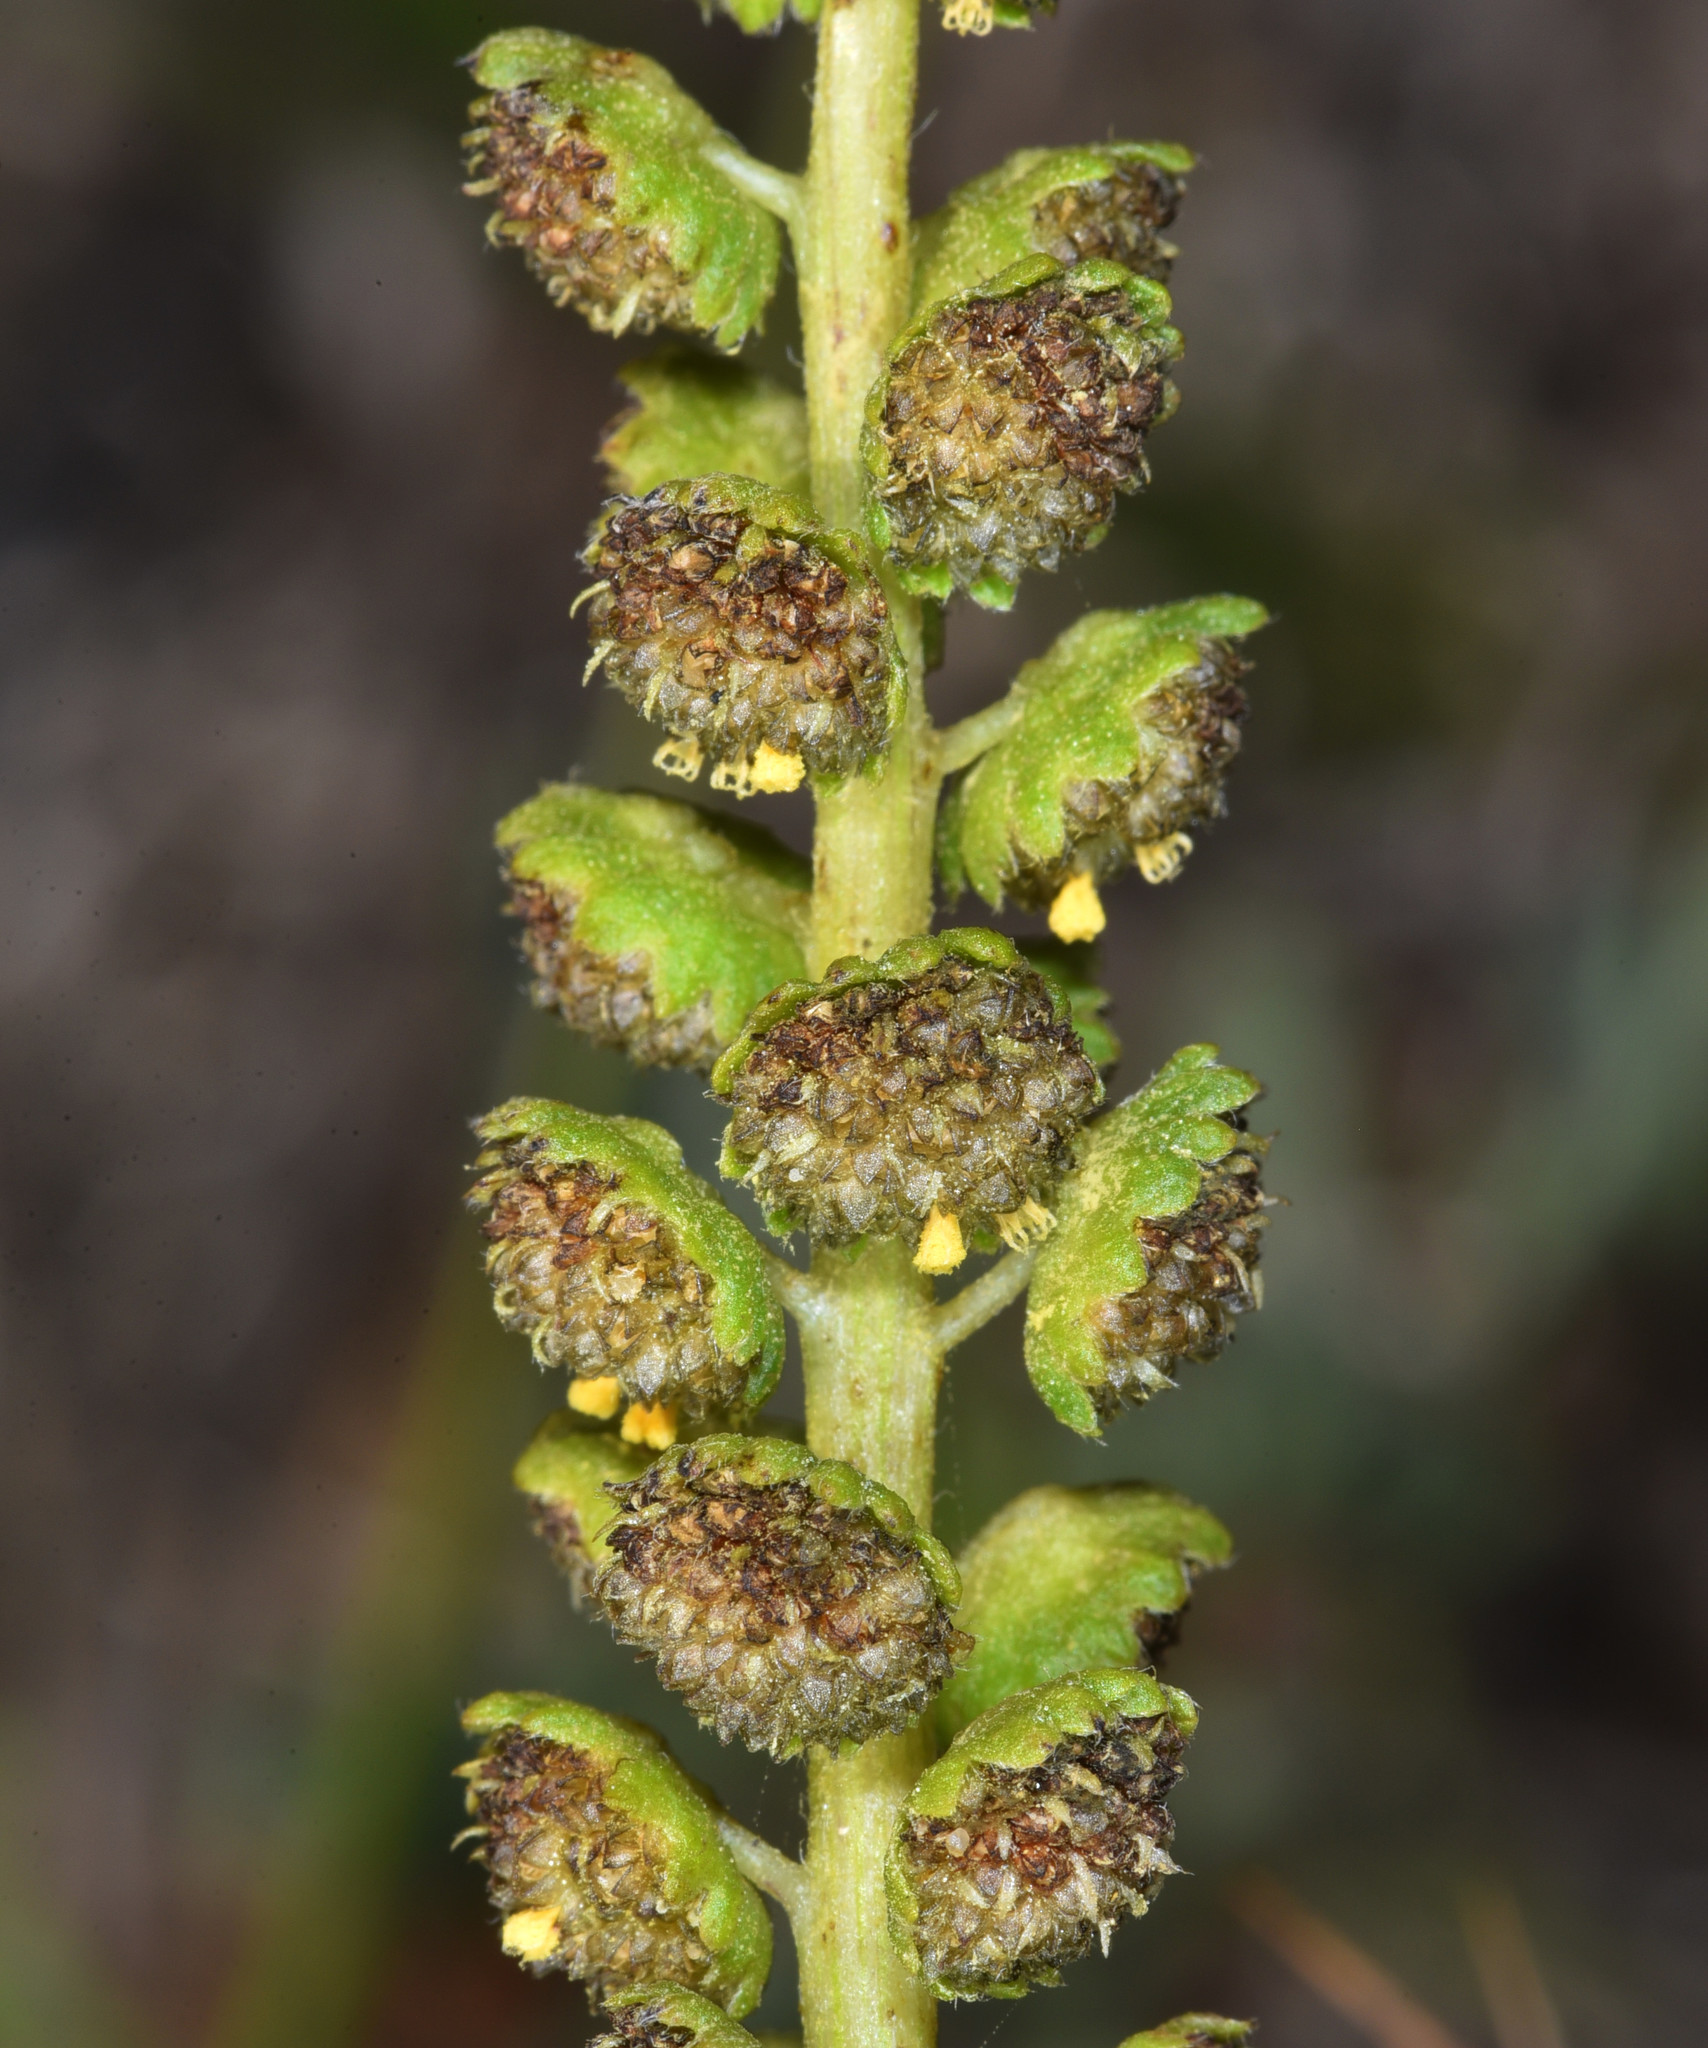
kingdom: Plantae
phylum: Tracheophyta
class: Magnoliopsida
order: Asterales
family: Asteraceae
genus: Ambrosia
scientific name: Ambrosia chamissonis
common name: Beachbur
